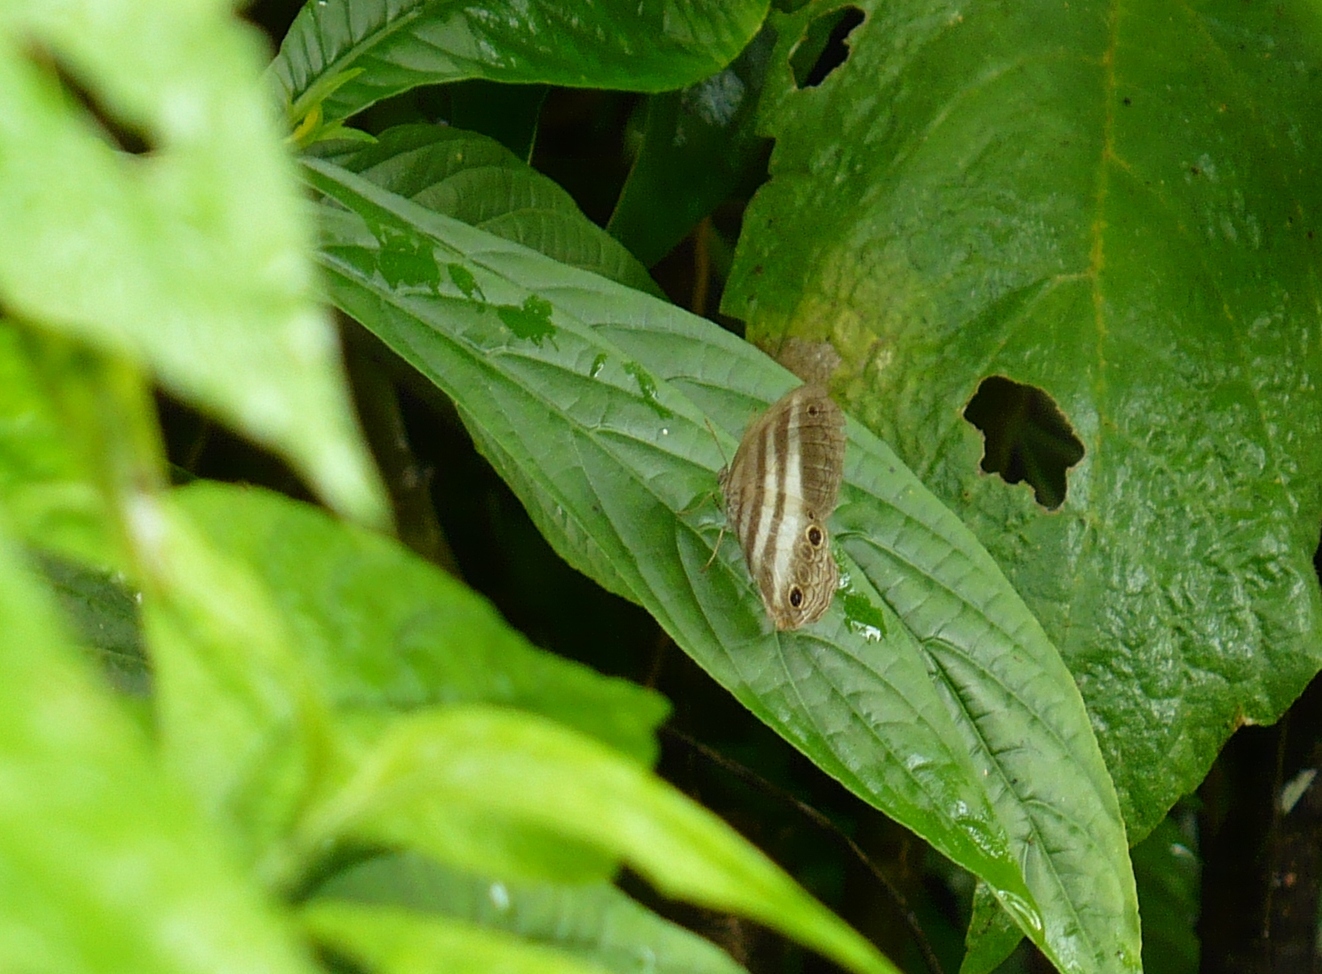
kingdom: Animalia
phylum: Arthropoda
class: Insecta
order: Lepidoptera
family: Nymphalidae
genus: Pareuptychia
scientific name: Pareuptychia hesione
